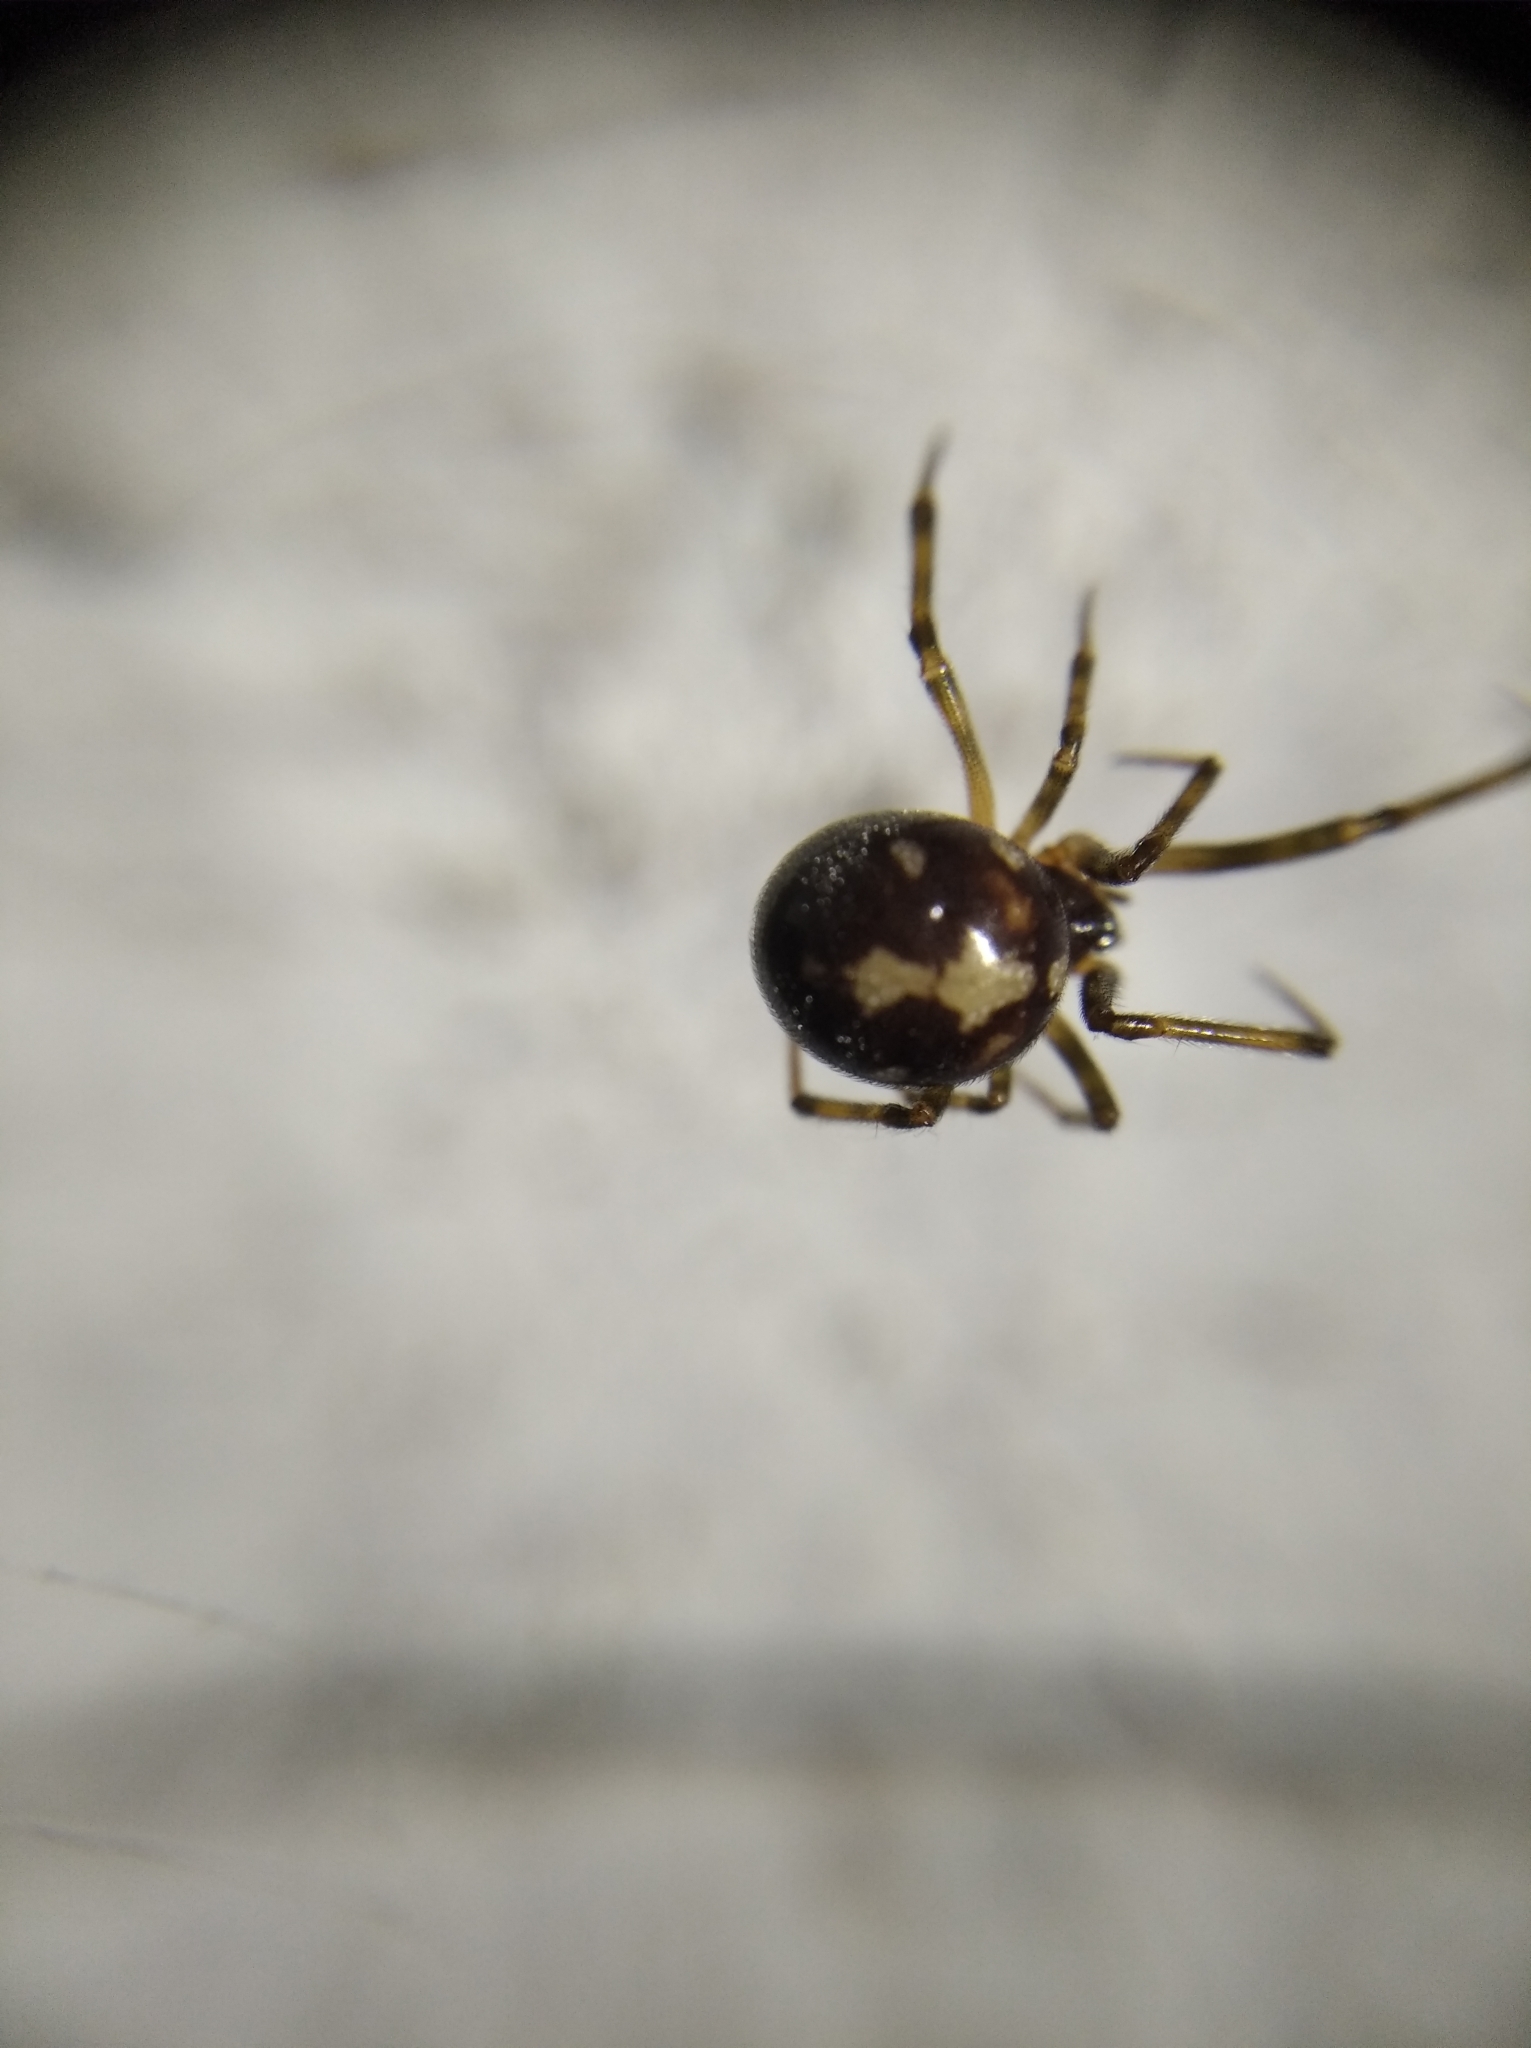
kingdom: Animalia
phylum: Arthropoda
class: Arachnida
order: Araneae
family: Theridiidae
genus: Steatoda
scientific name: Steatoda triangulosa
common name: Triangulate bud spider
